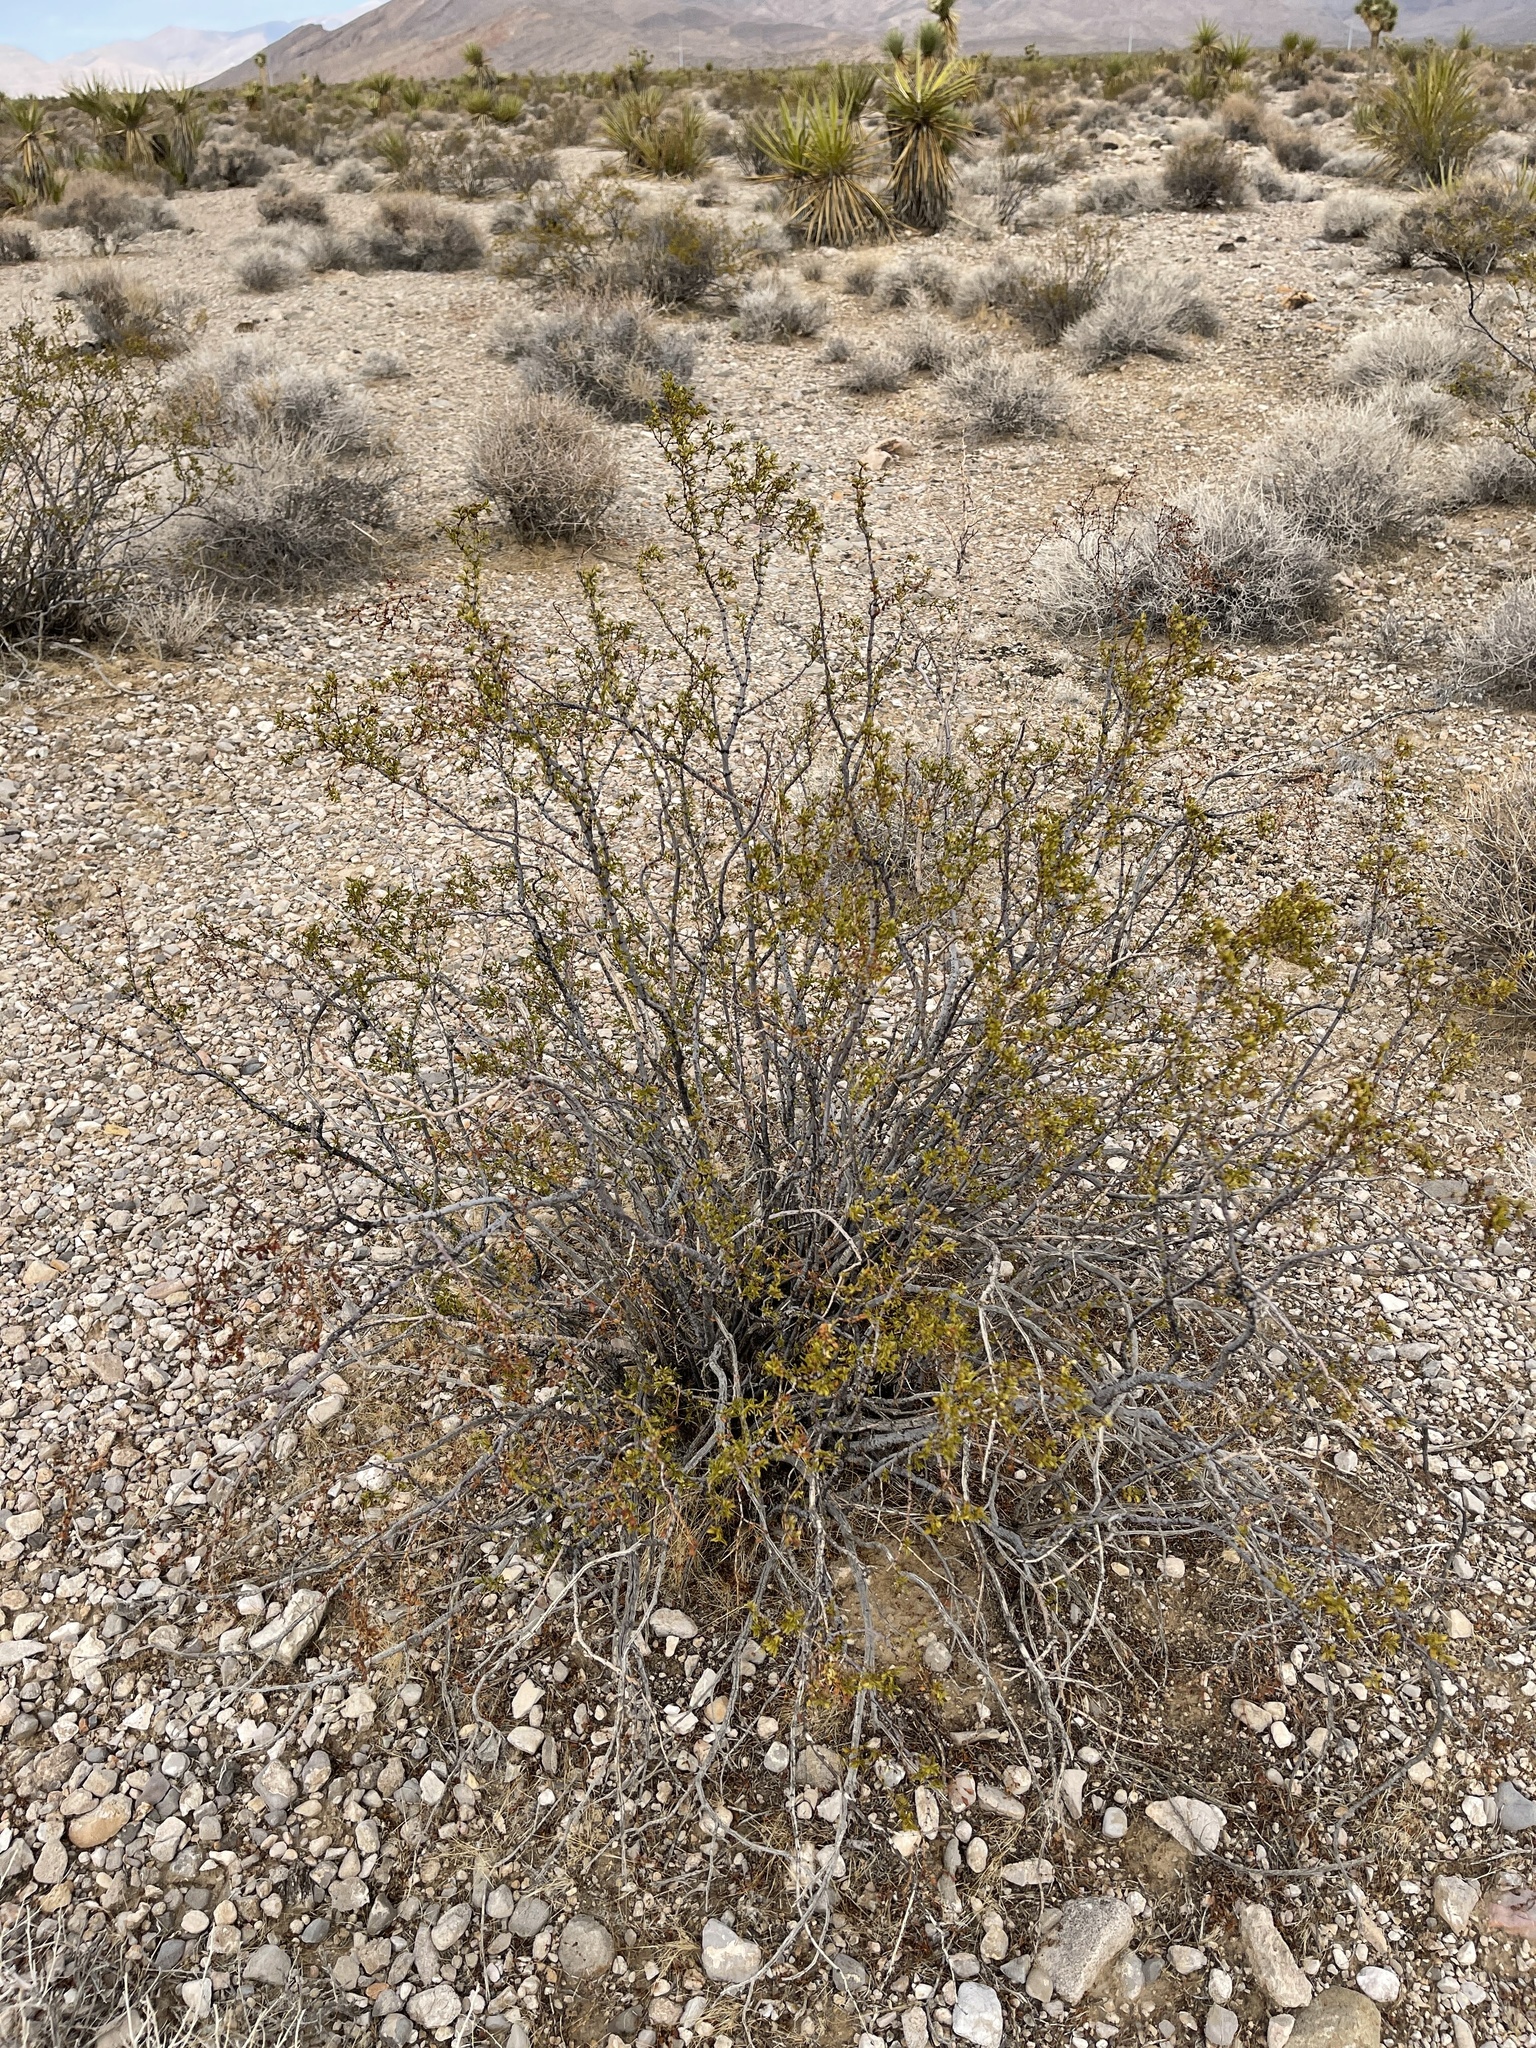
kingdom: Plantae
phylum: Tracheophyta
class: Magnoliopsida
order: Zygophyllales
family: Zygophyllaceae
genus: Larrea
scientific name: Larrea tridentata
